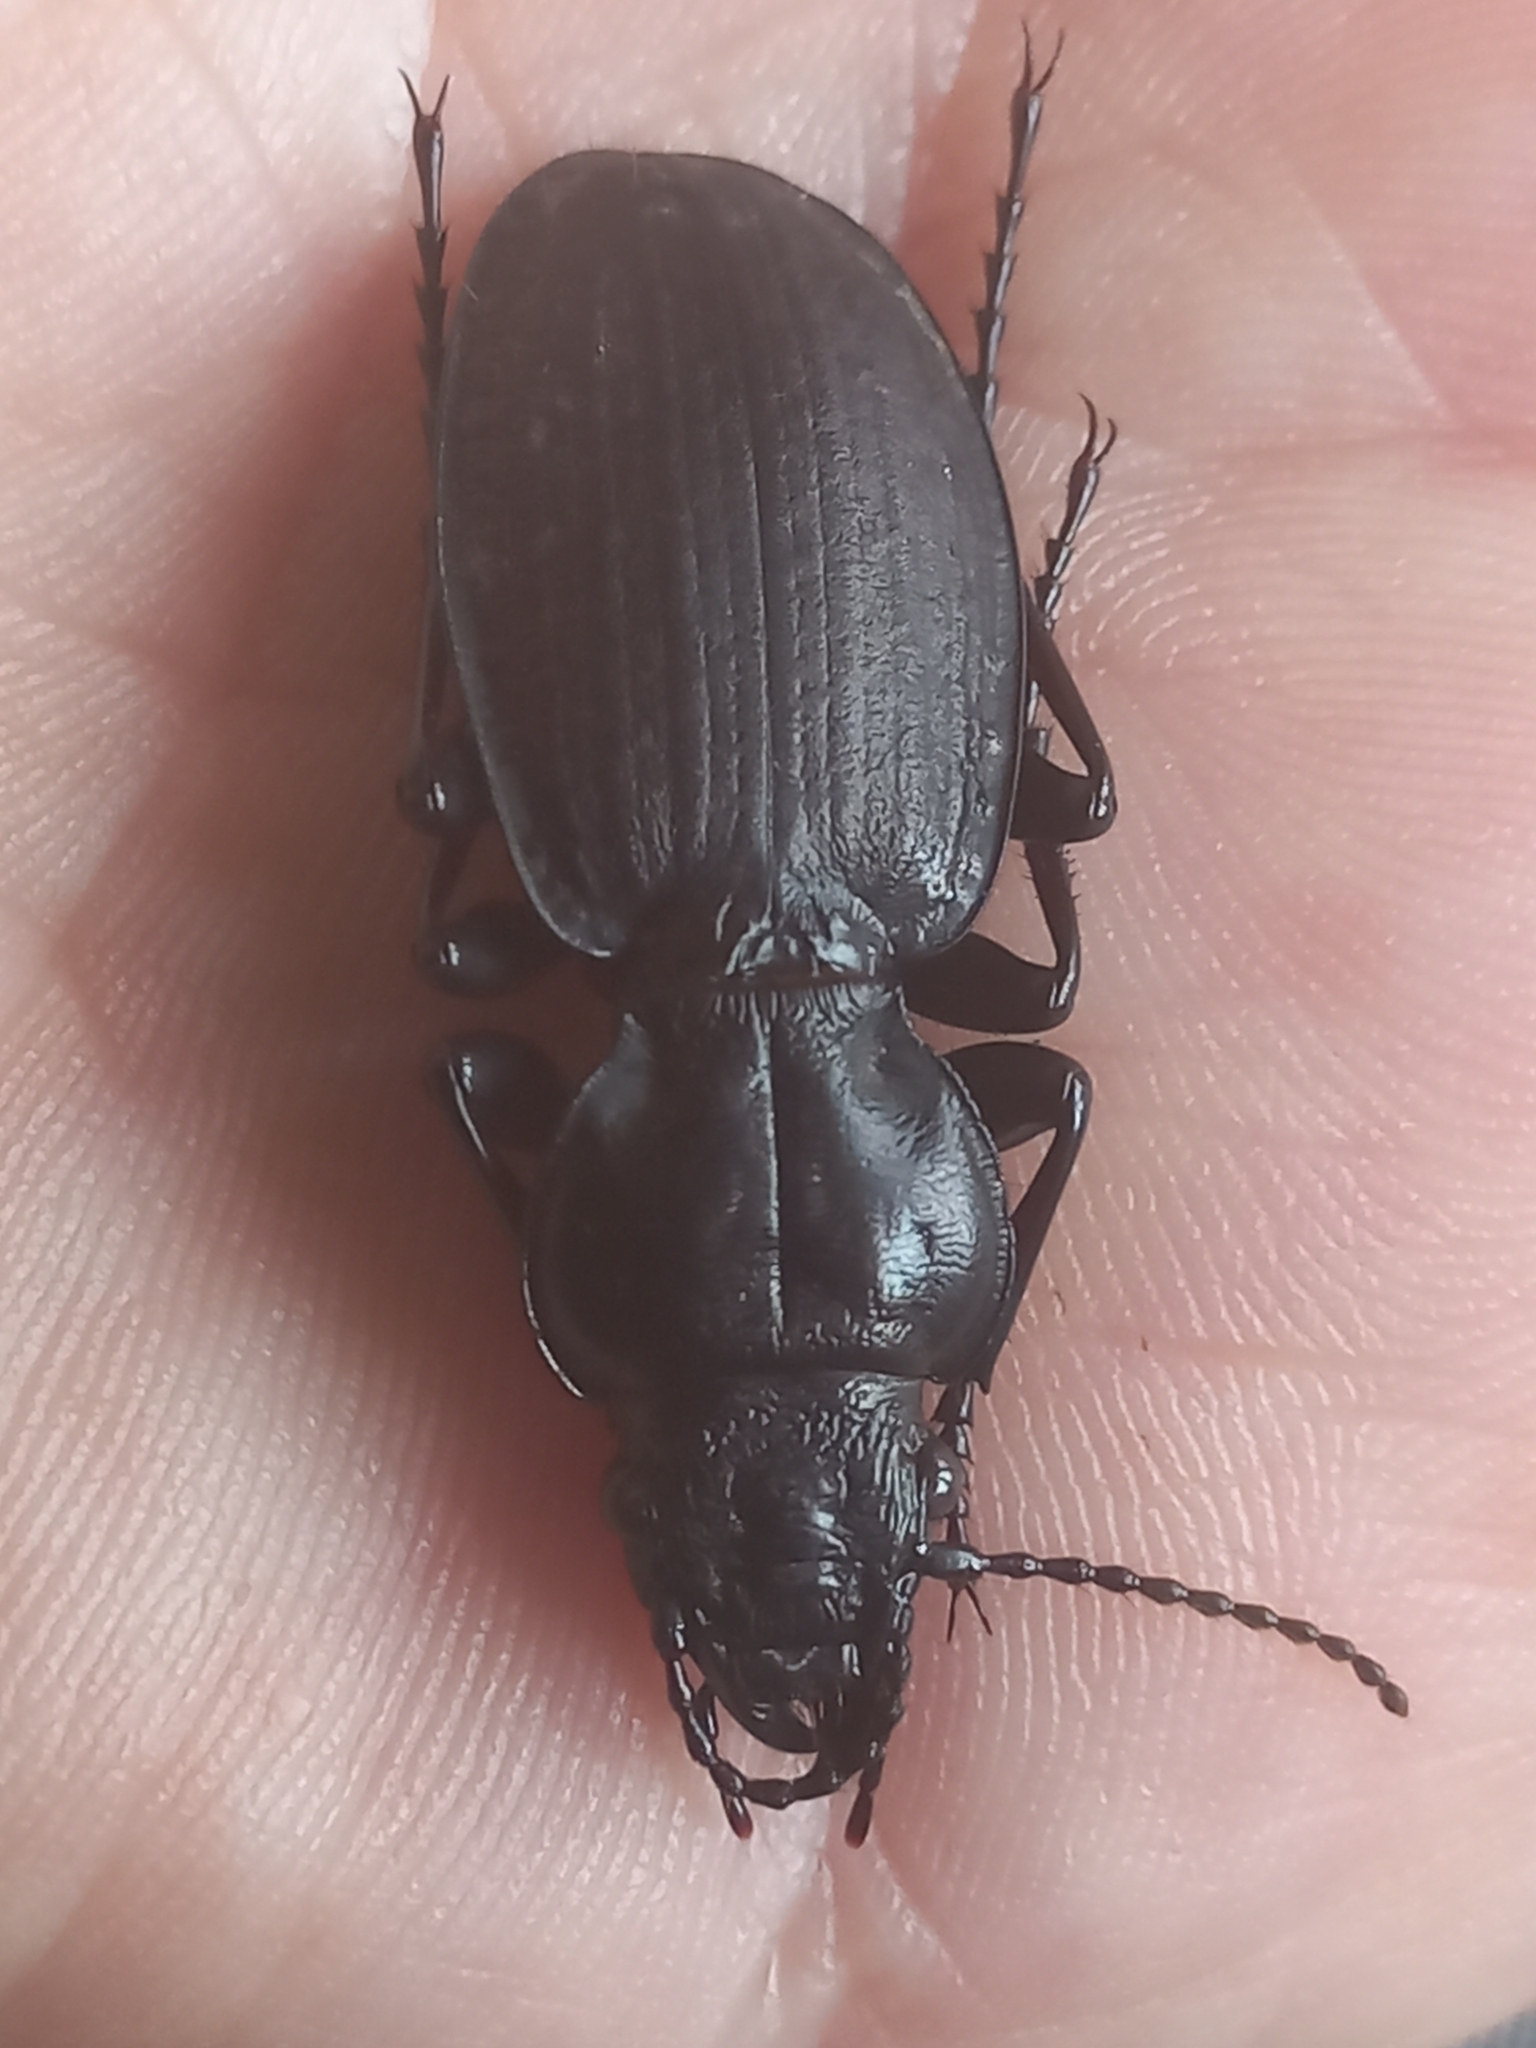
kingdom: Animalia
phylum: Arthropoda
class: Insecta
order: Coleoptera
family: Carabidae
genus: Mecodema
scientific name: Mecodema laterale
